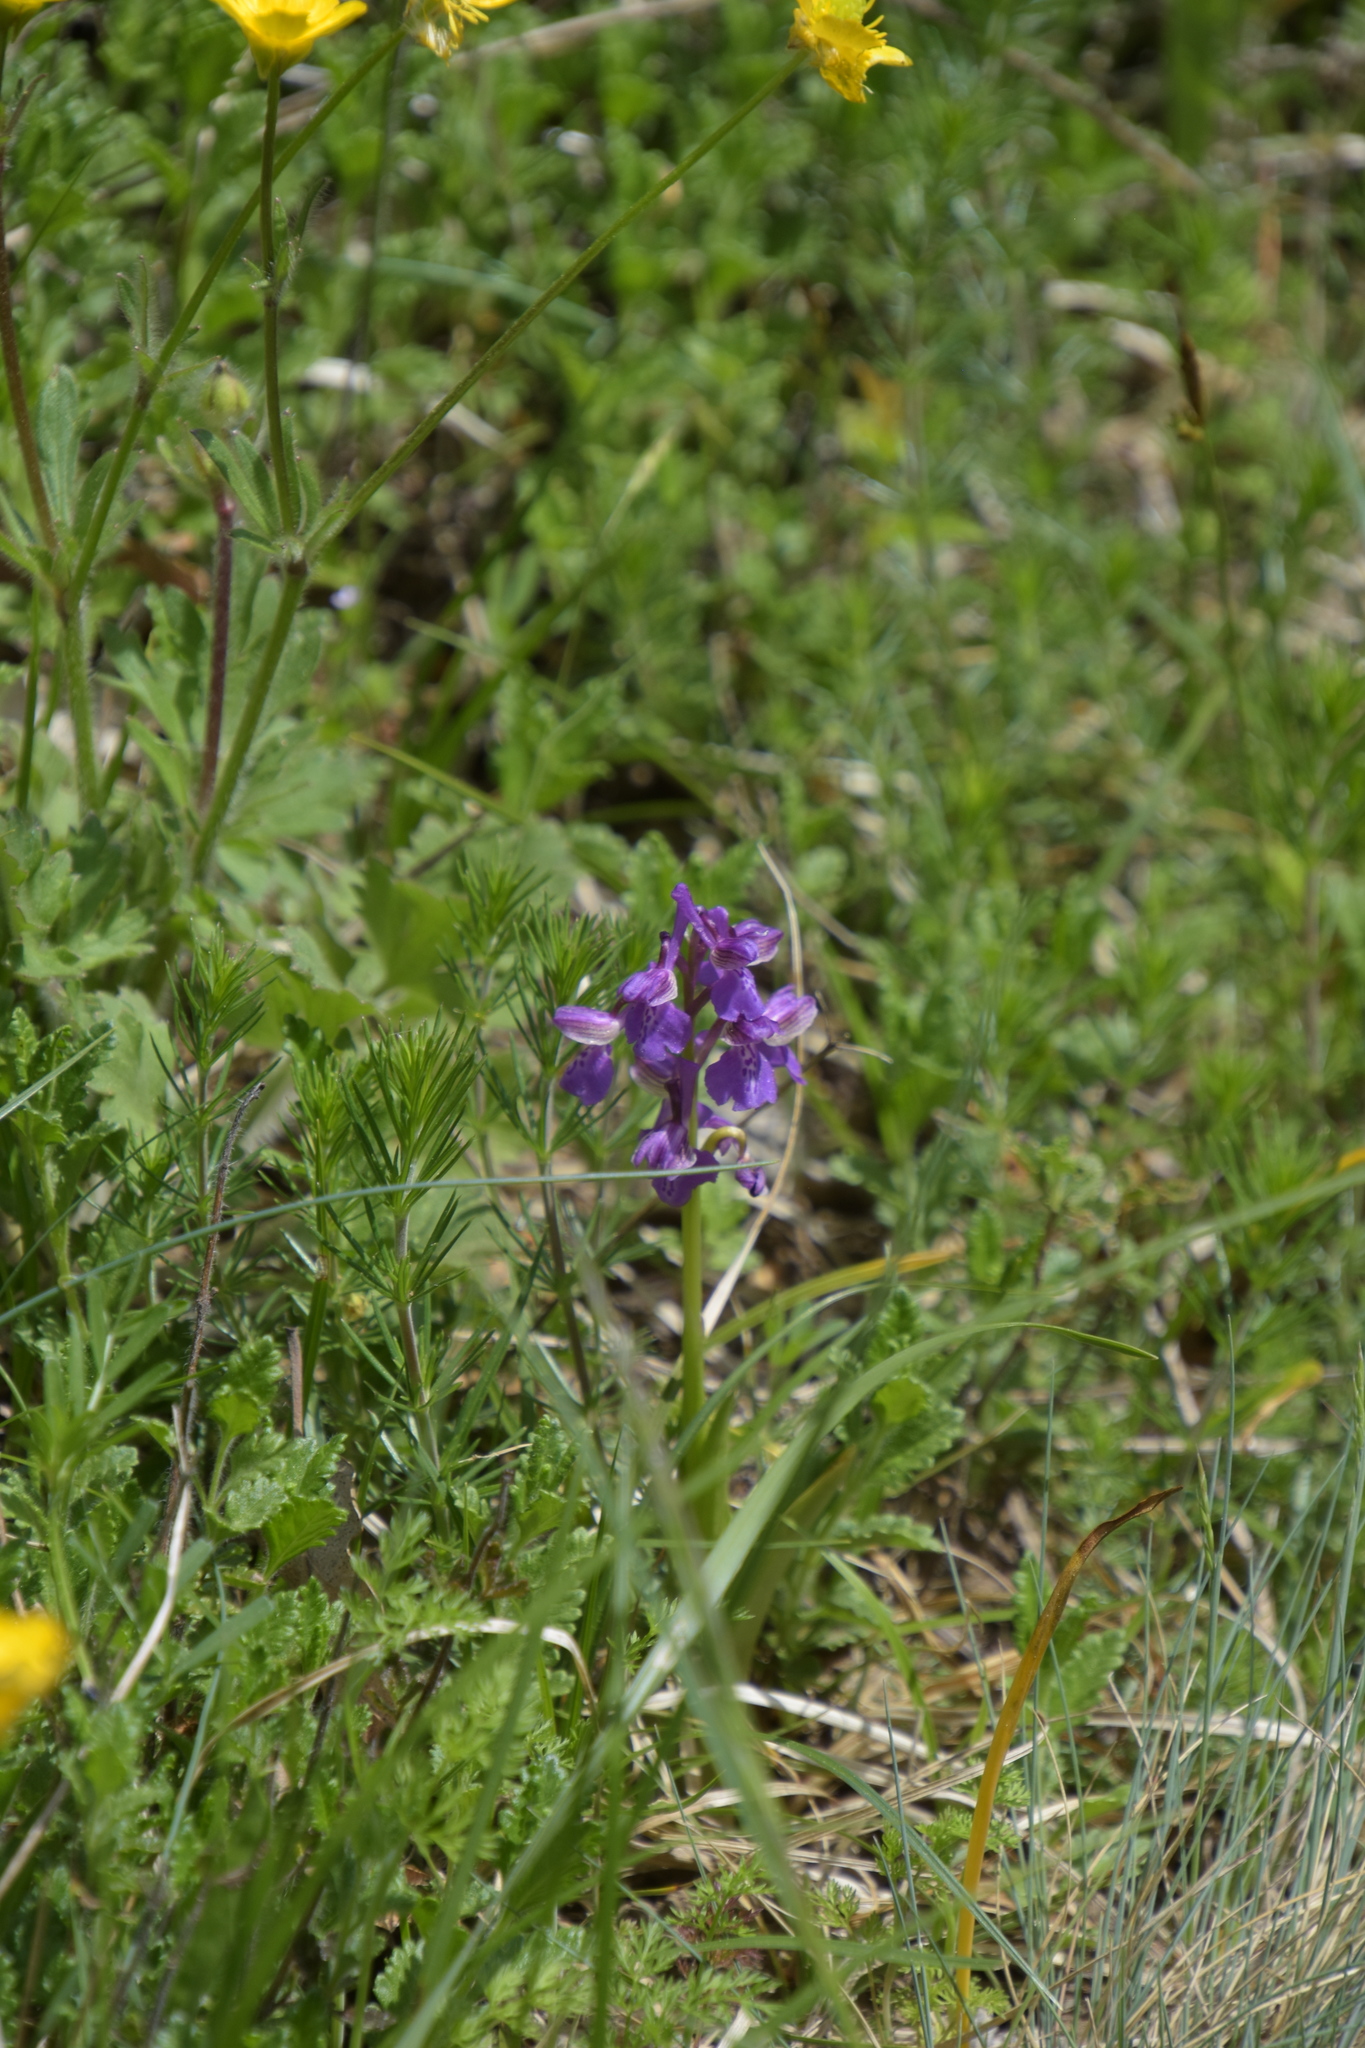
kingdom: Plantae
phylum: Tracheophyta
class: Liliopsida
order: Asparagales
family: Orchidaceae
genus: Anacamptis
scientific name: Anacamptis morio
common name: Green-winged orchid
